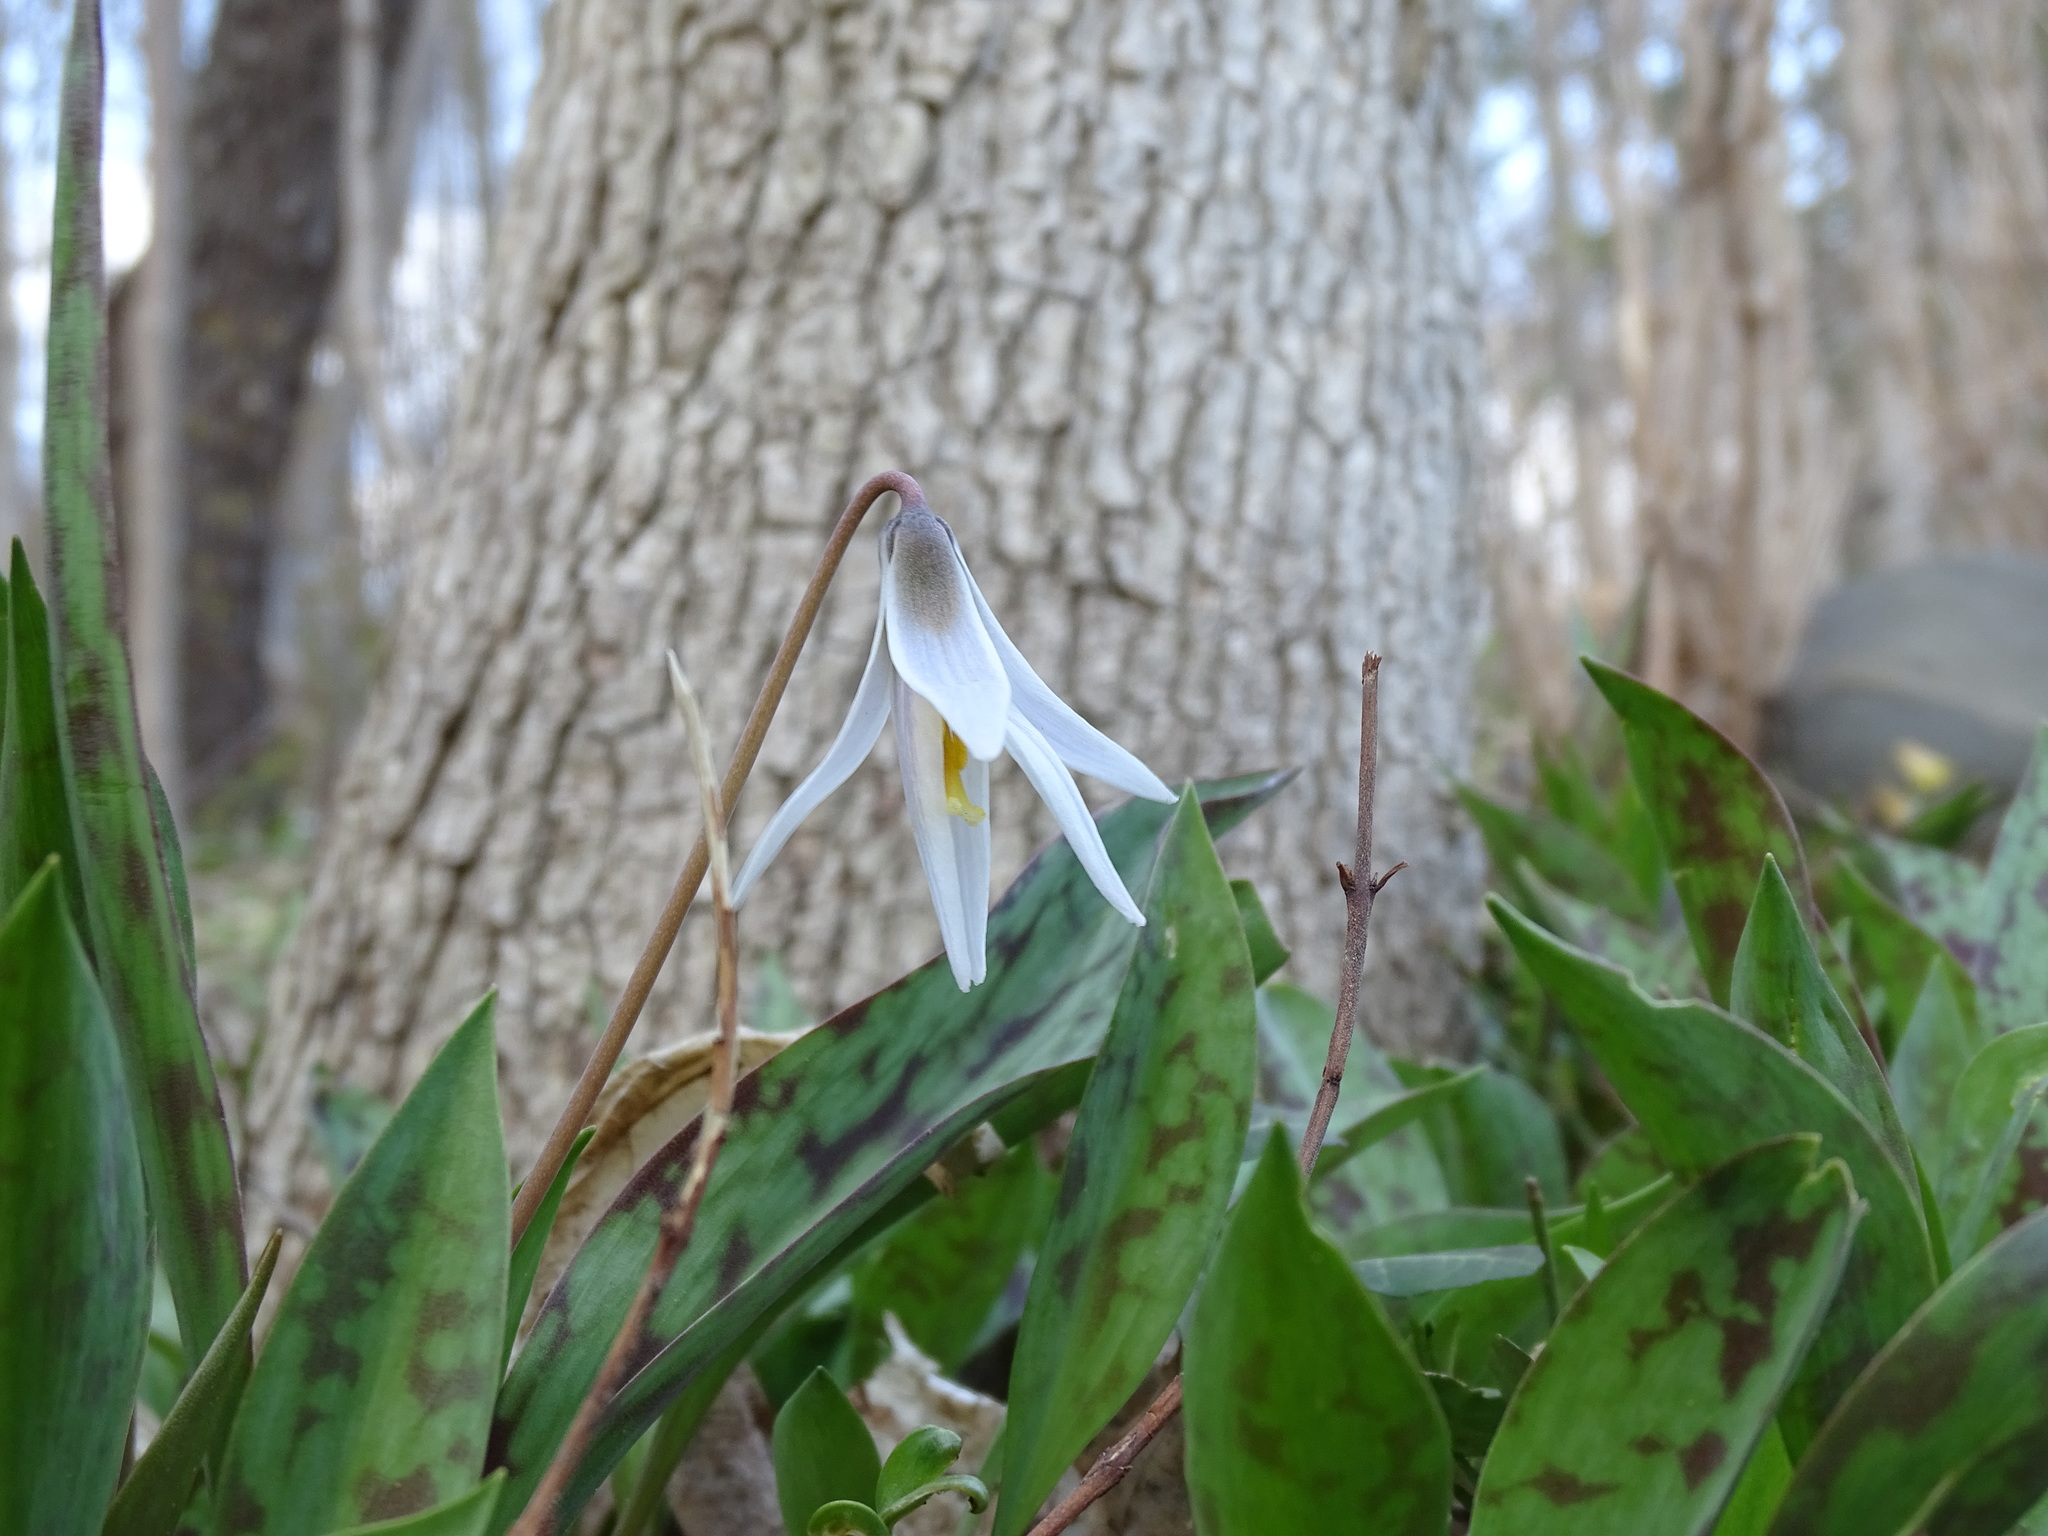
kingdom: Plantae
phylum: Tracheophyta
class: Liliopsida
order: Liliales
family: Liliaceae
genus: Erythronium
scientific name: Erythronium albidum
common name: White trout-lily
